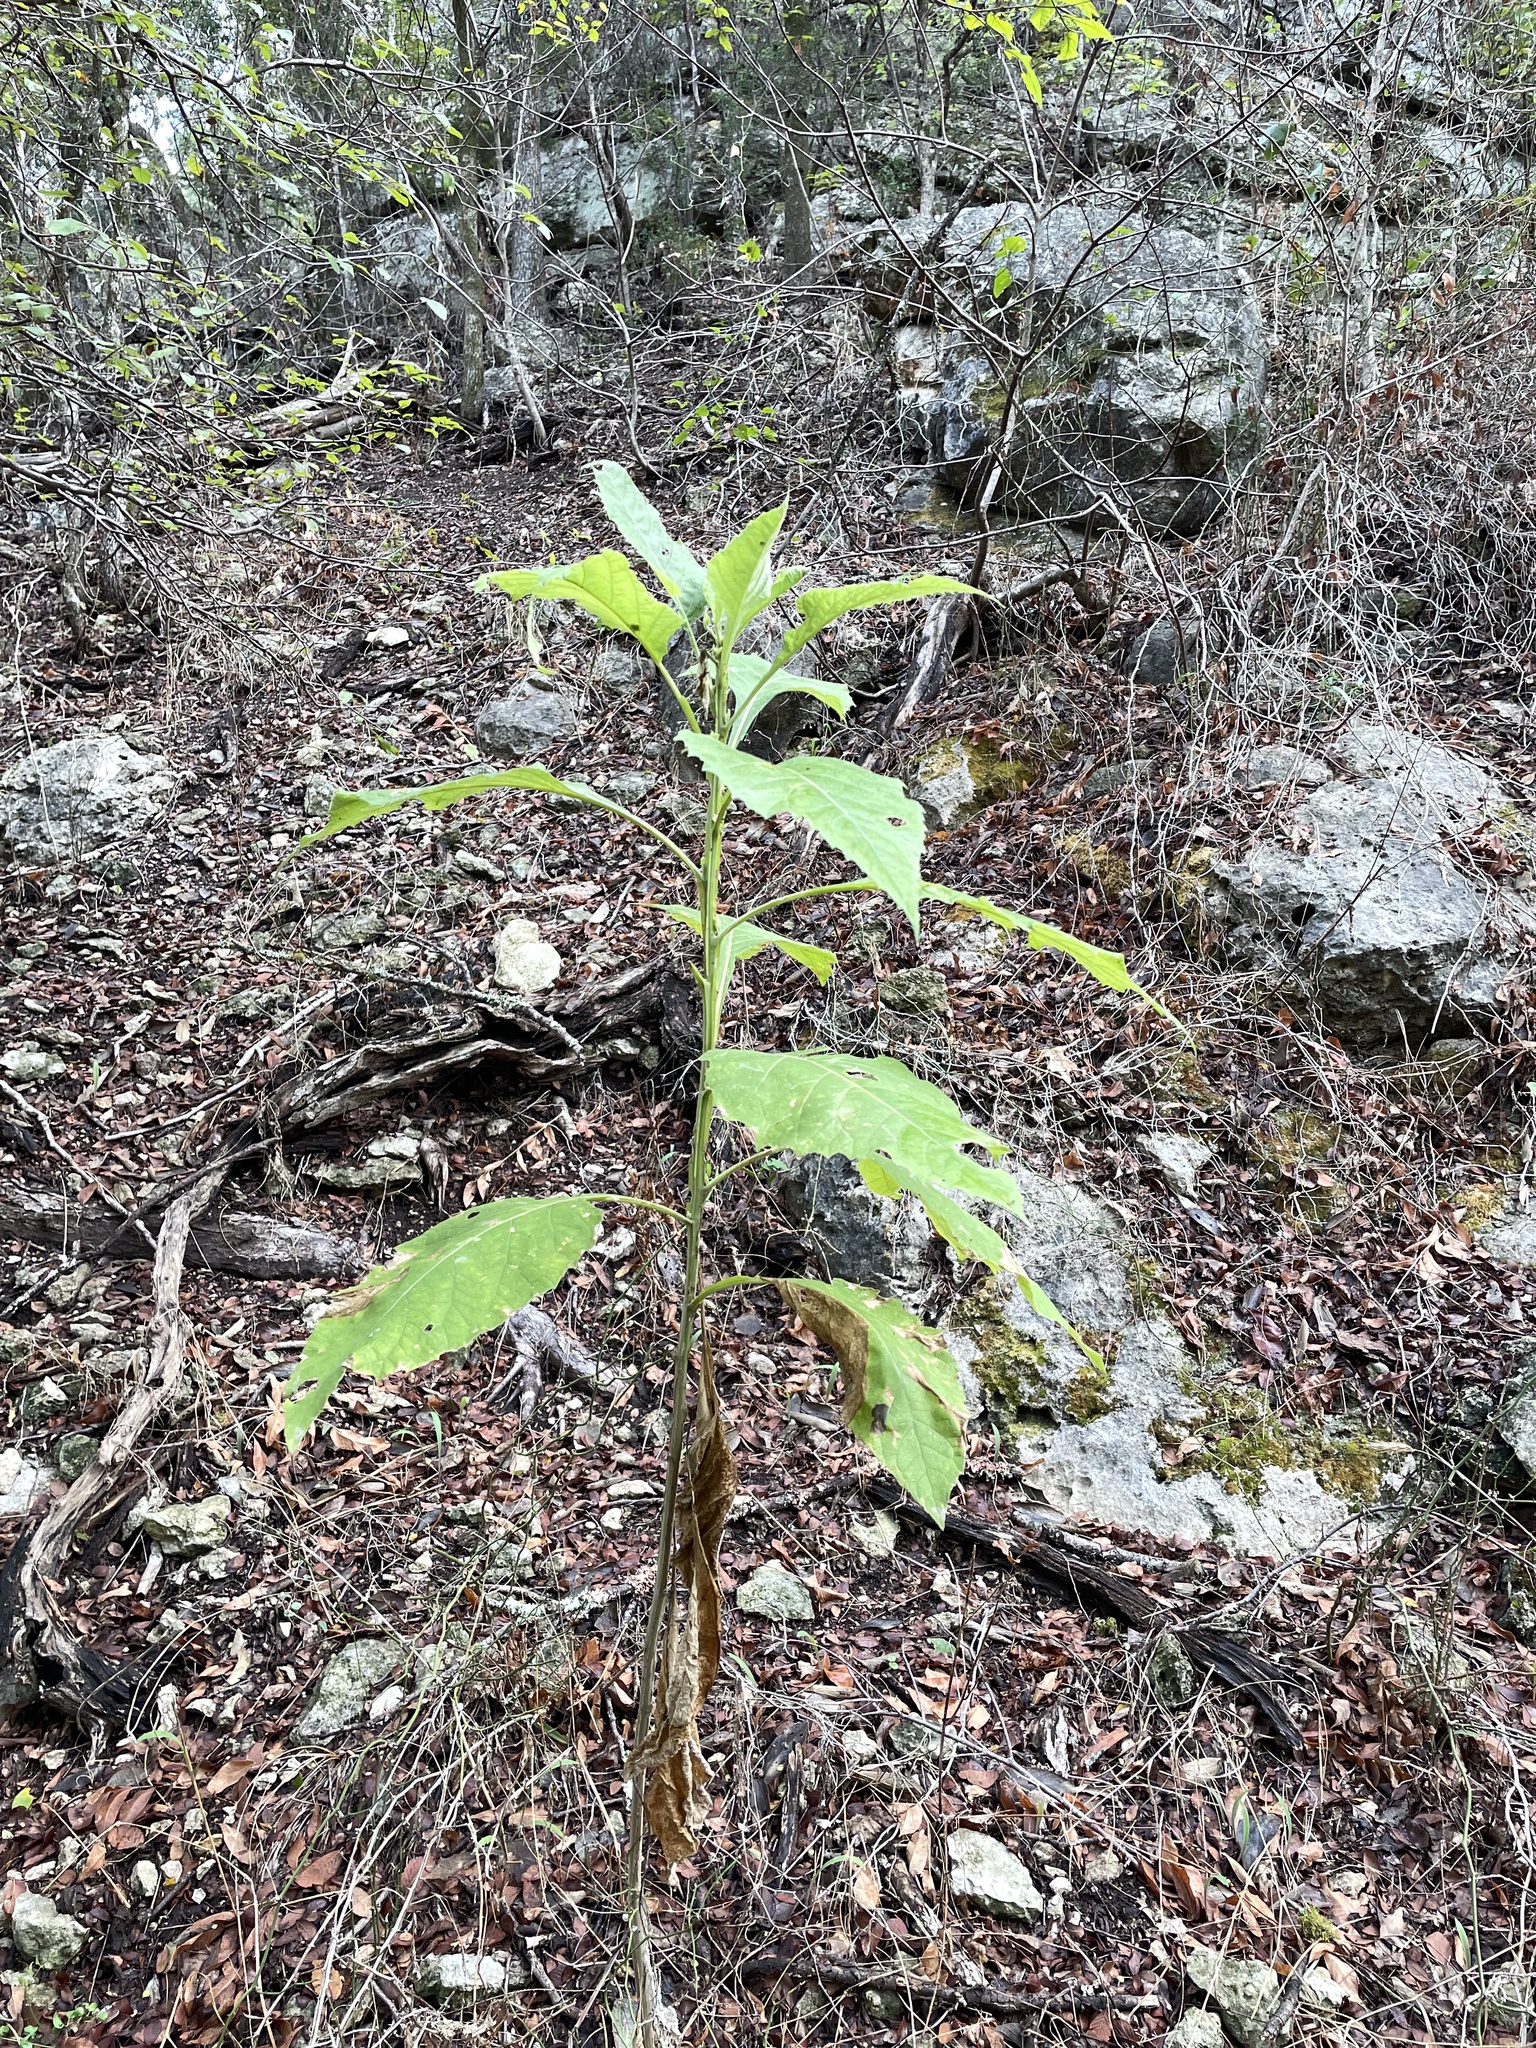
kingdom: Plantae
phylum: Tracheophyta
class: Magnoliopsida
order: Asterales
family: Asteraceae
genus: Verbesina
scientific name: Verbesina virginica
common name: Frostweed
